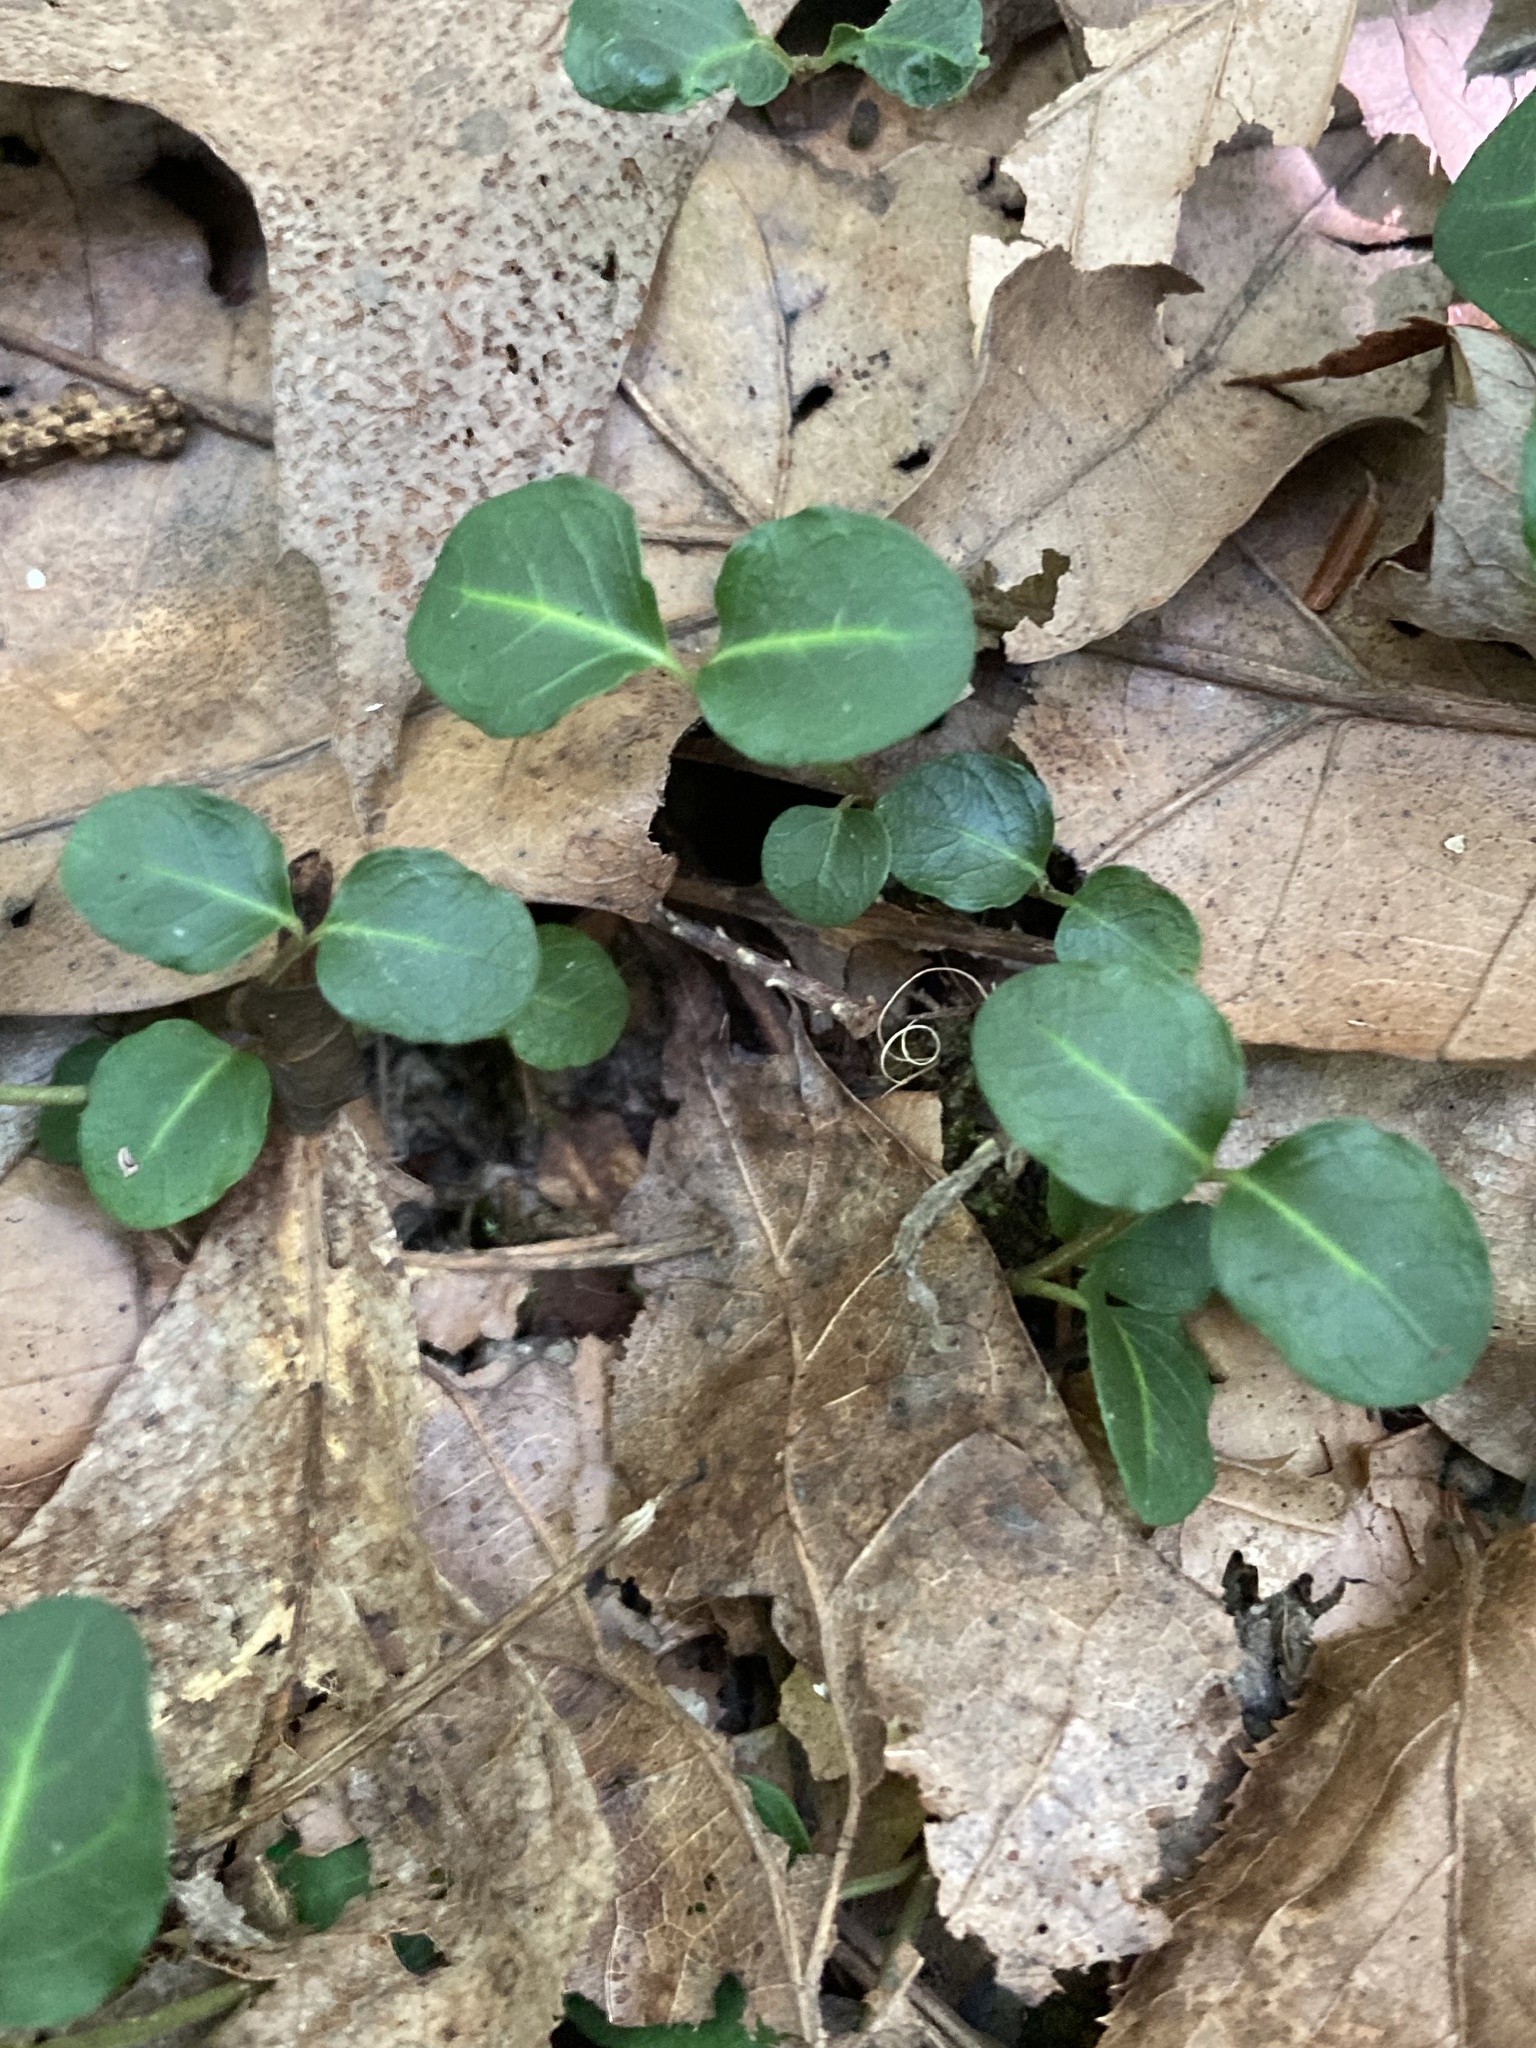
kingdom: Plantae
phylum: Tracheophyta
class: Magnoliopsida
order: Gentianales
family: Rubiaceae
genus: Mitchella
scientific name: Mitchella repens
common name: Partridge-berry
